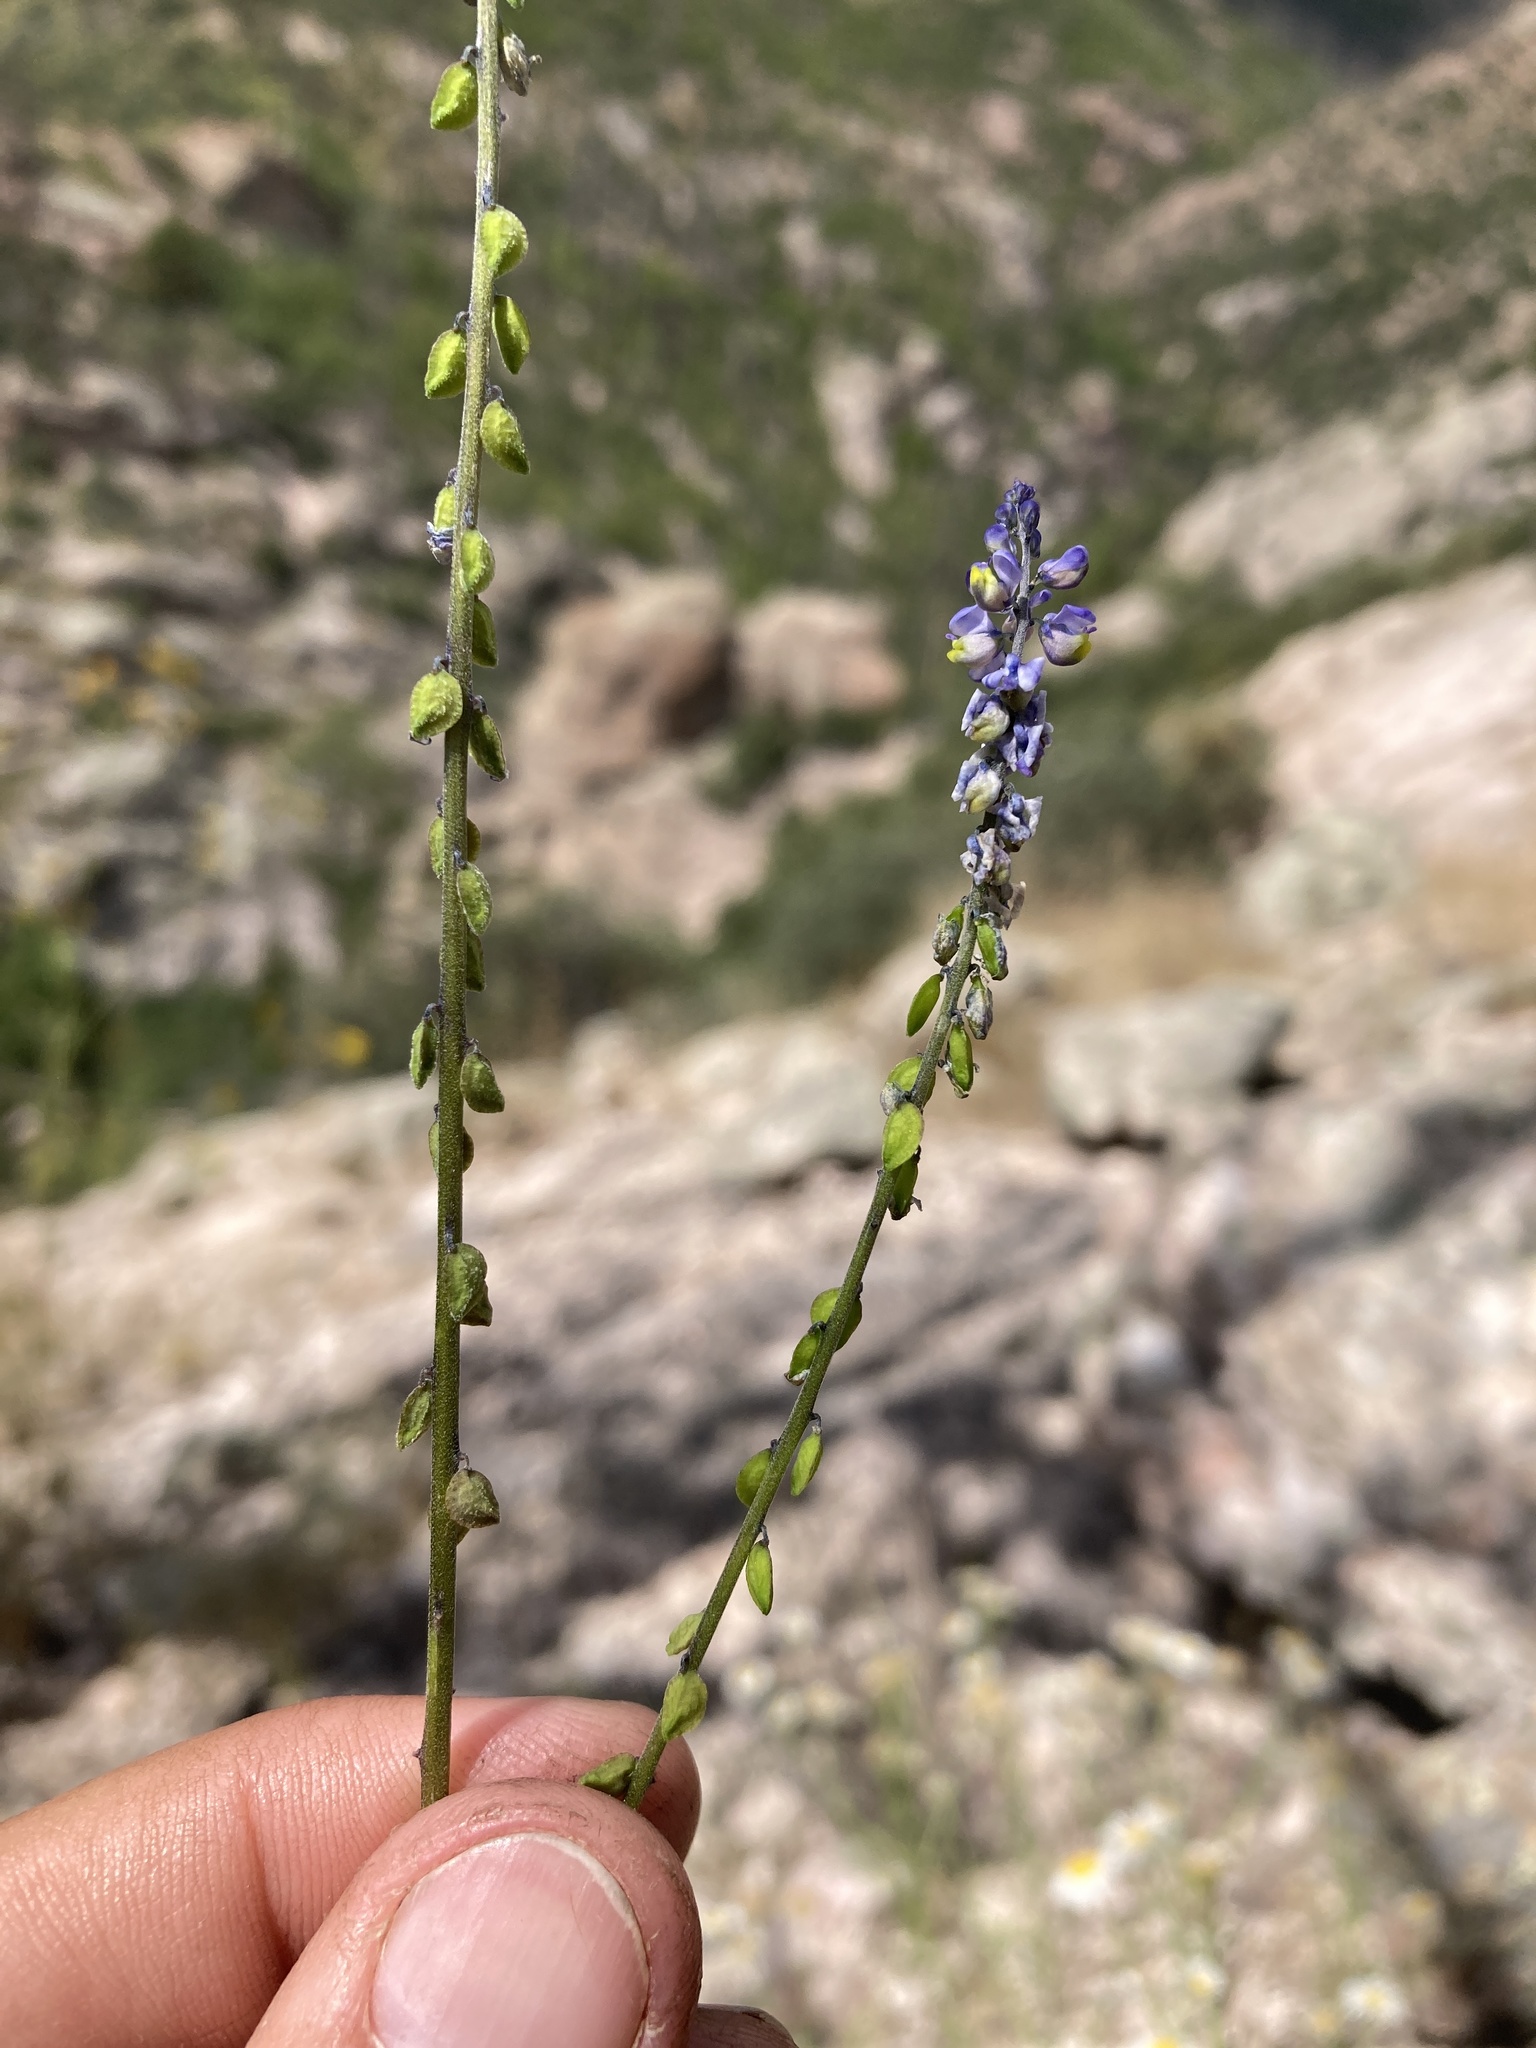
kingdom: Plantae
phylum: Tracheophyta
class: Magnoliopsida
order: Fabales
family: Polygalaceae
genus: Monnina
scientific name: Monnina wrightii
